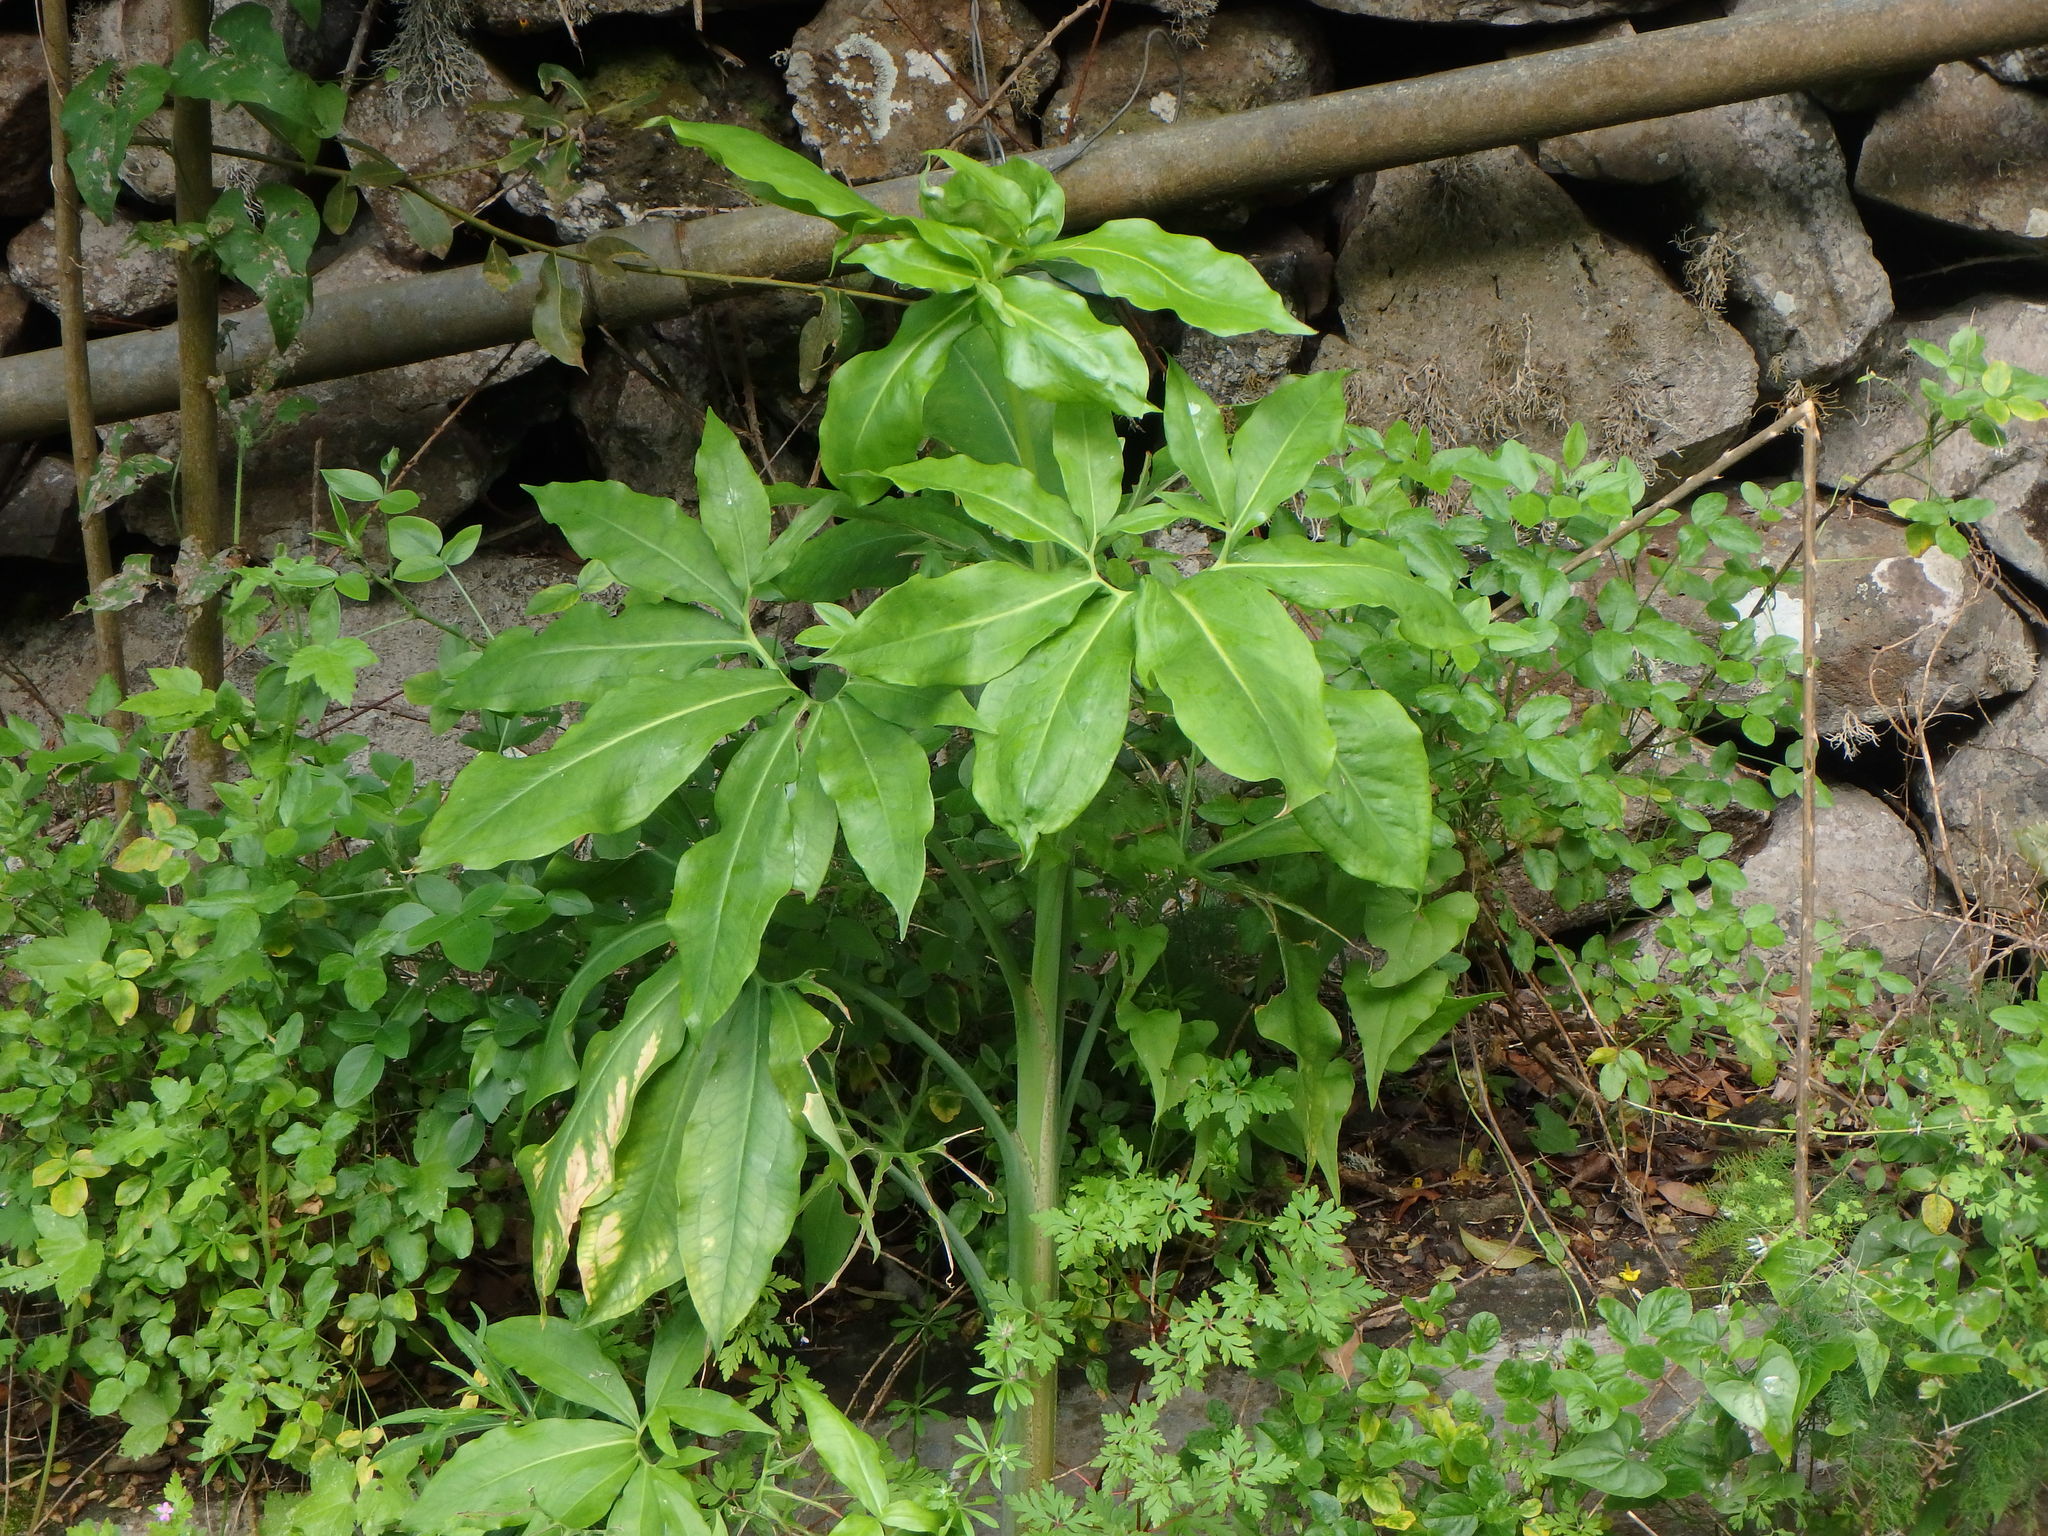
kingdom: Plantae
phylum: Tracheophyta
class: Liliopsida
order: Alismatales
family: Araceae
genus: Dracunculus
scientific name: Dracunculus canariensis
